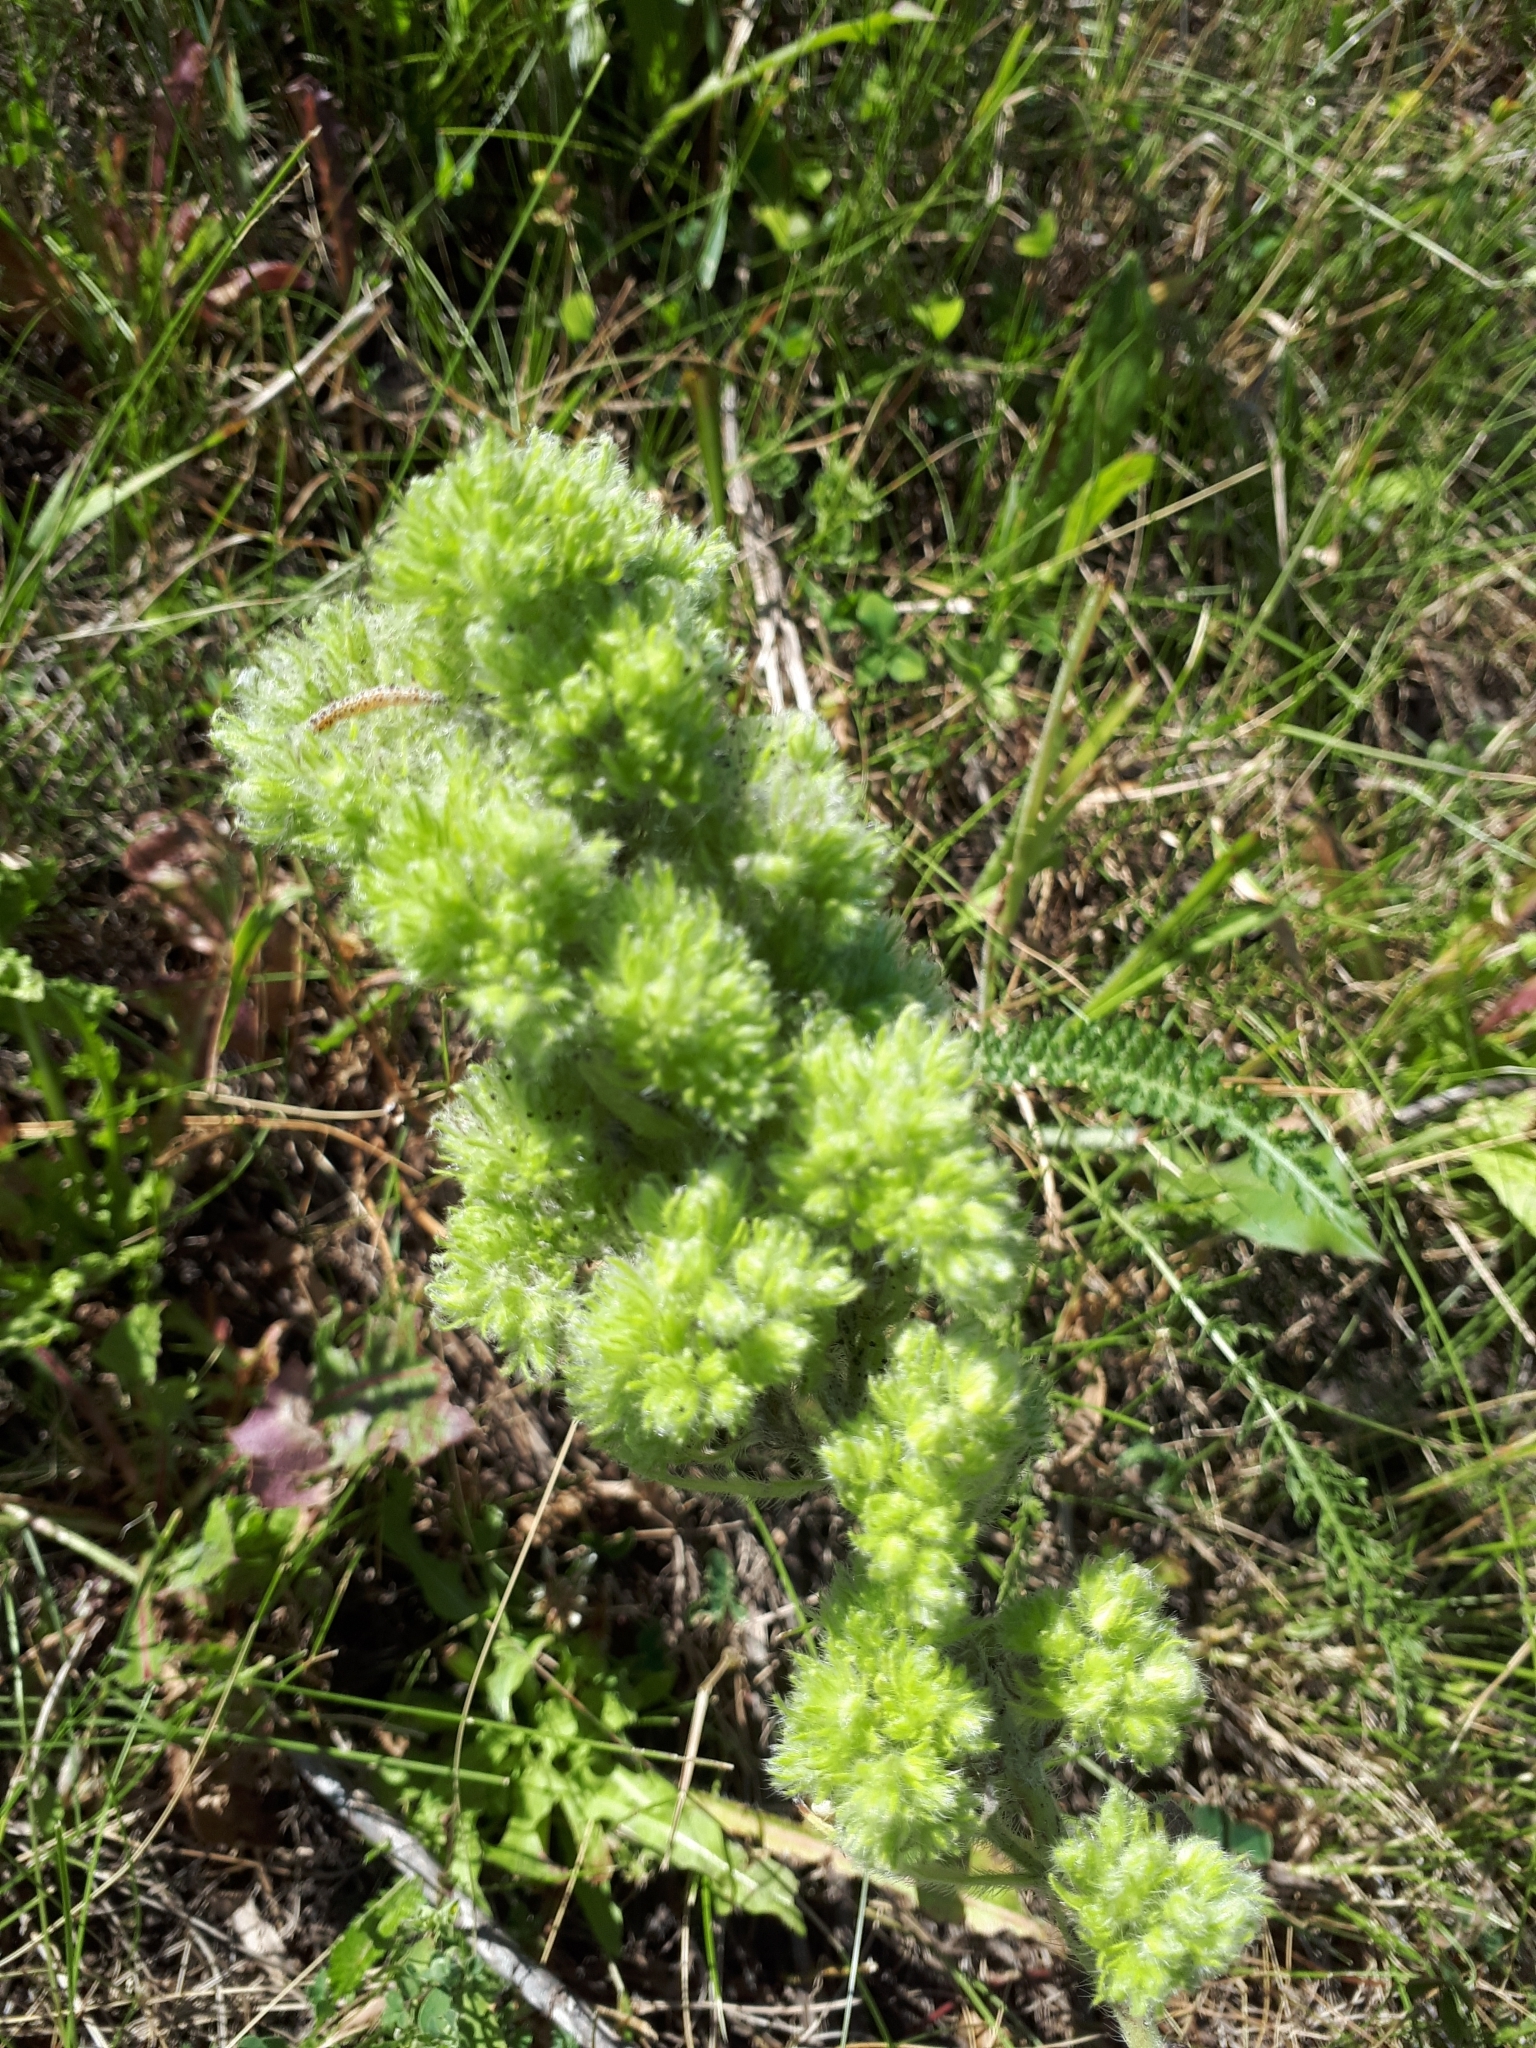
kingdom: Plantae
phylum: Tracheophyta
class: Magnoliopsida
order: Boraginales
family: Boraginaceae
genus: Echium
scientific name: Echium vulgare
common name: Common viper's bugloss
